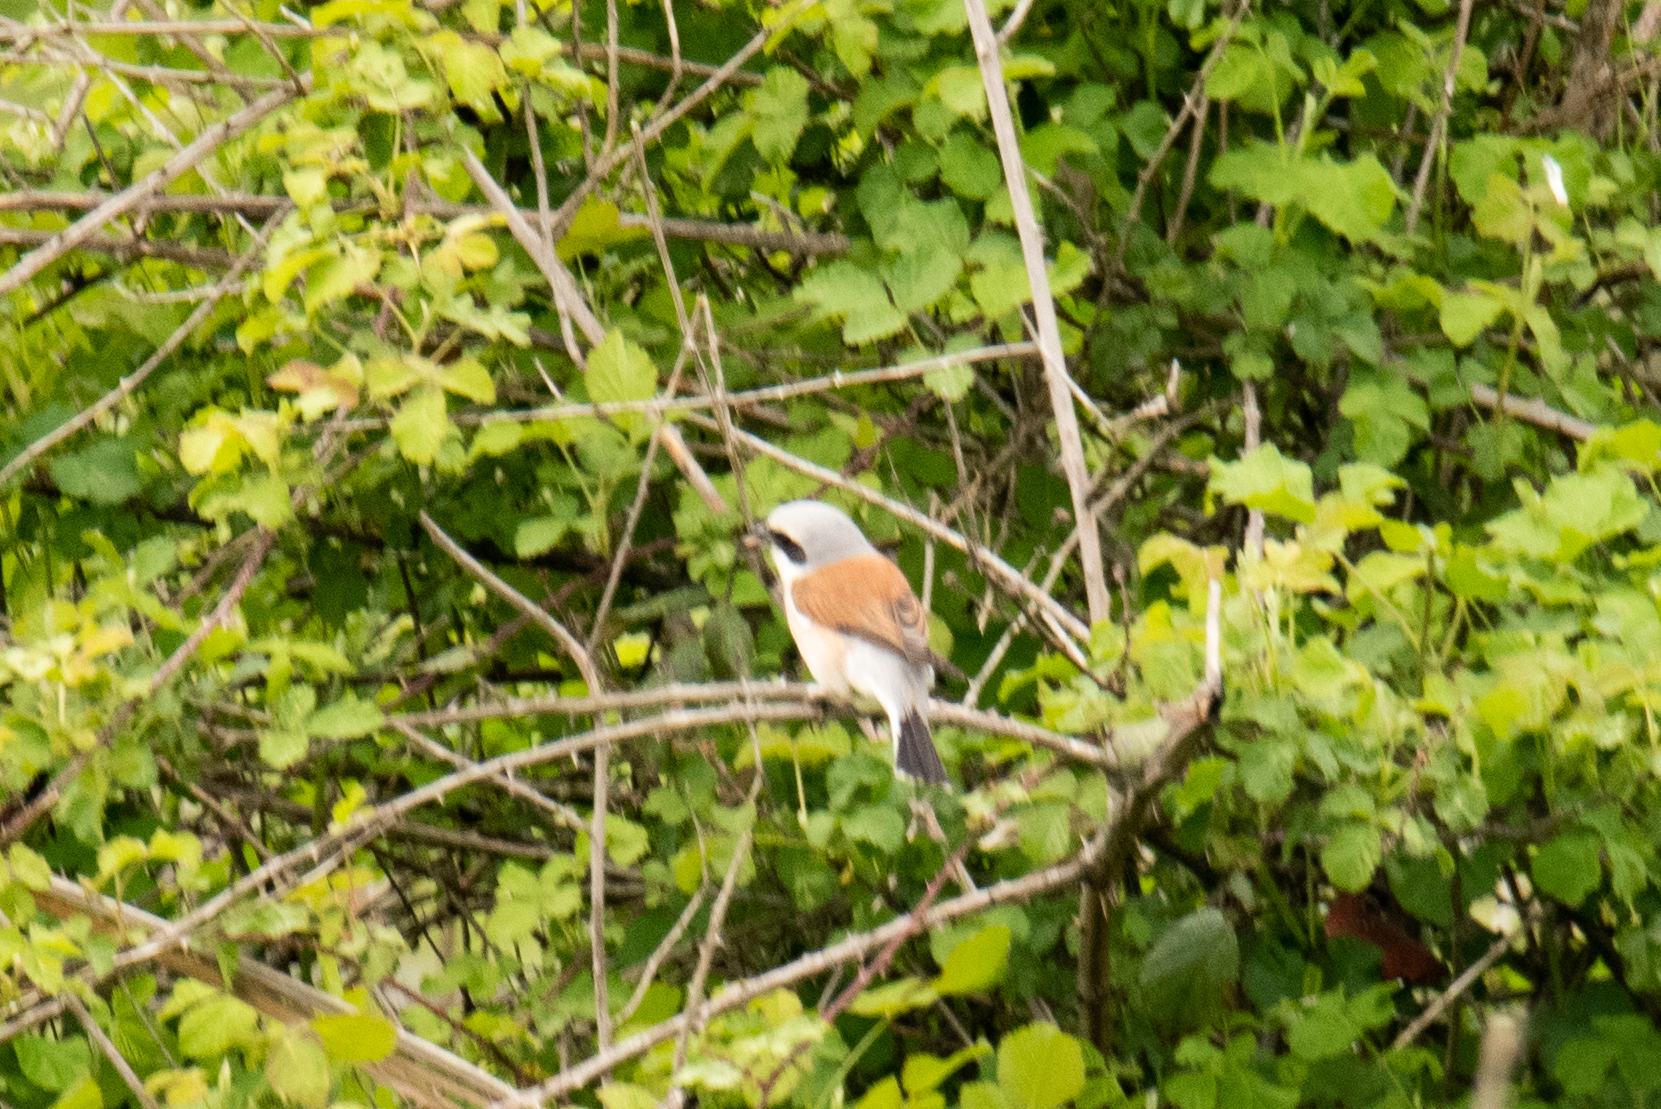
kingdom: Animalia
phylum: Chordata
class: Aves
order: Passeriformes
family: Laniidae
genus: Lanius
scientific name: Lanius collurio
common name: Red-backed shrike
